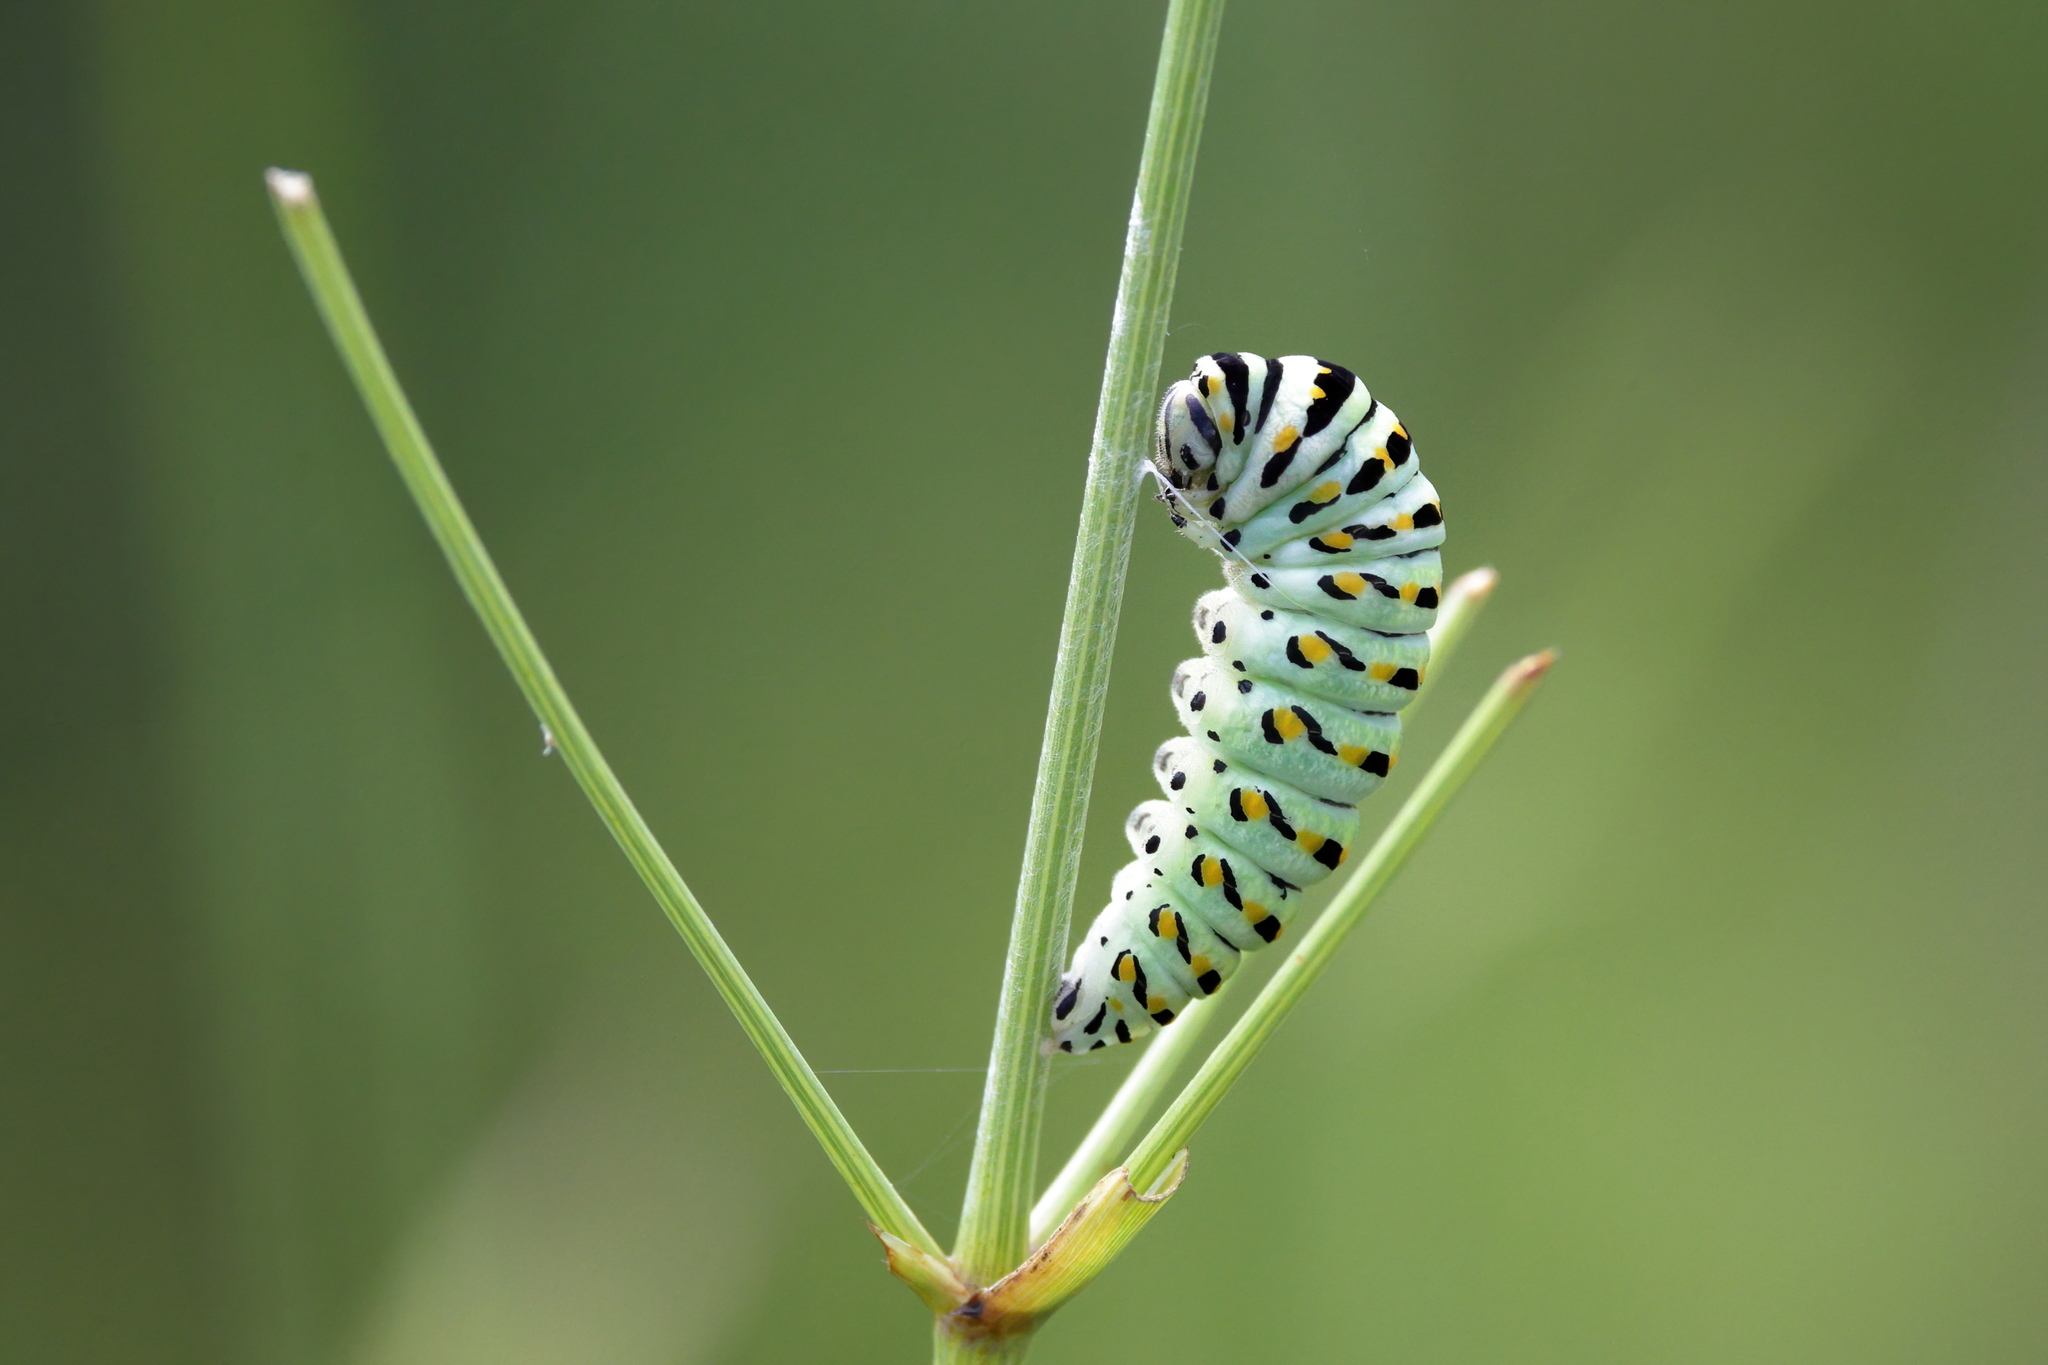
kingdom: Animalia
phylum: Arthropoda
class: Insecta
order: Lepidoptera
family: Papilionidae
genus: Papilio
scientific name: Papilio polyxenes
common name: Black swallowtail
